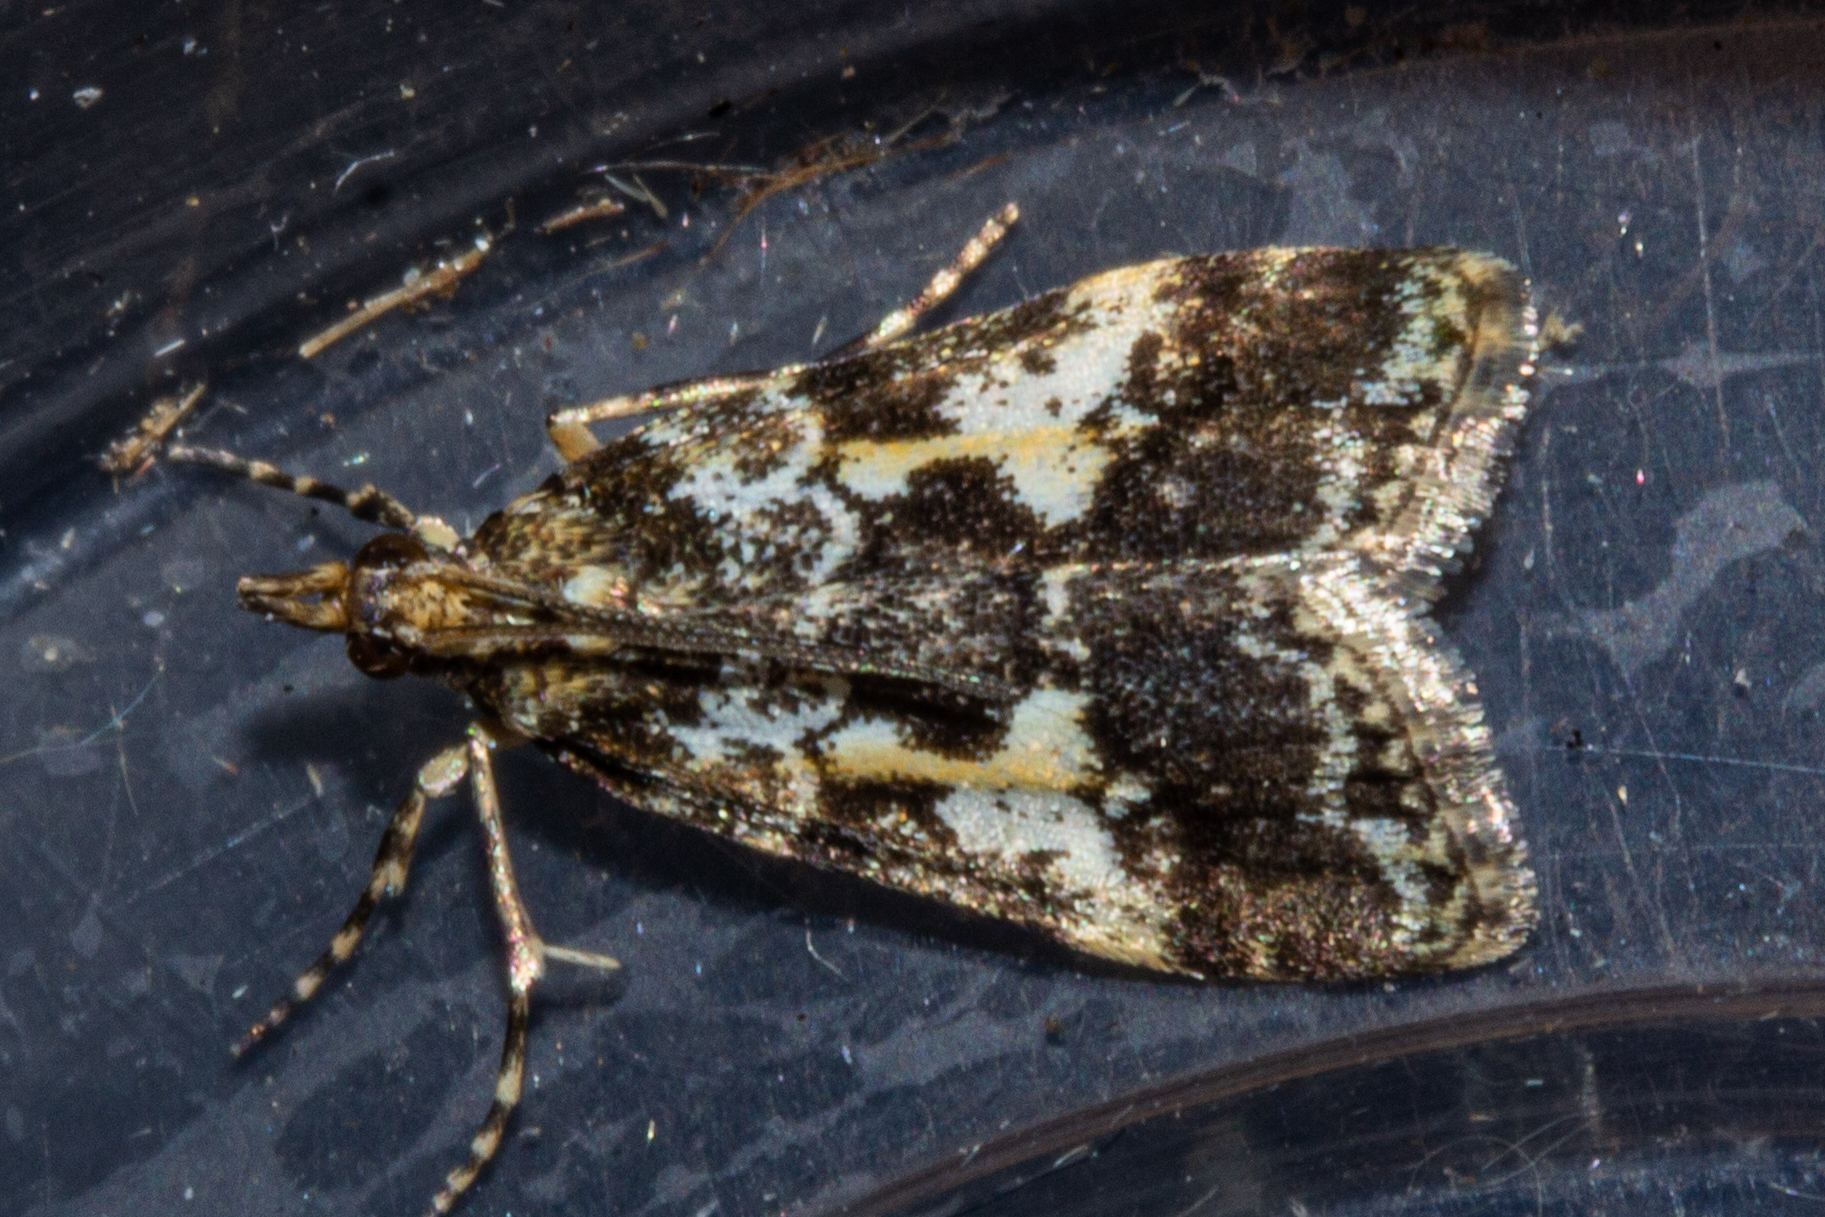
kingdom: Animalia
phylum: Arthropoda
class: Insecta
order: Lepidoptera
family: Crambidae
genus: Eudonia
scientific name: Eudonia characta
